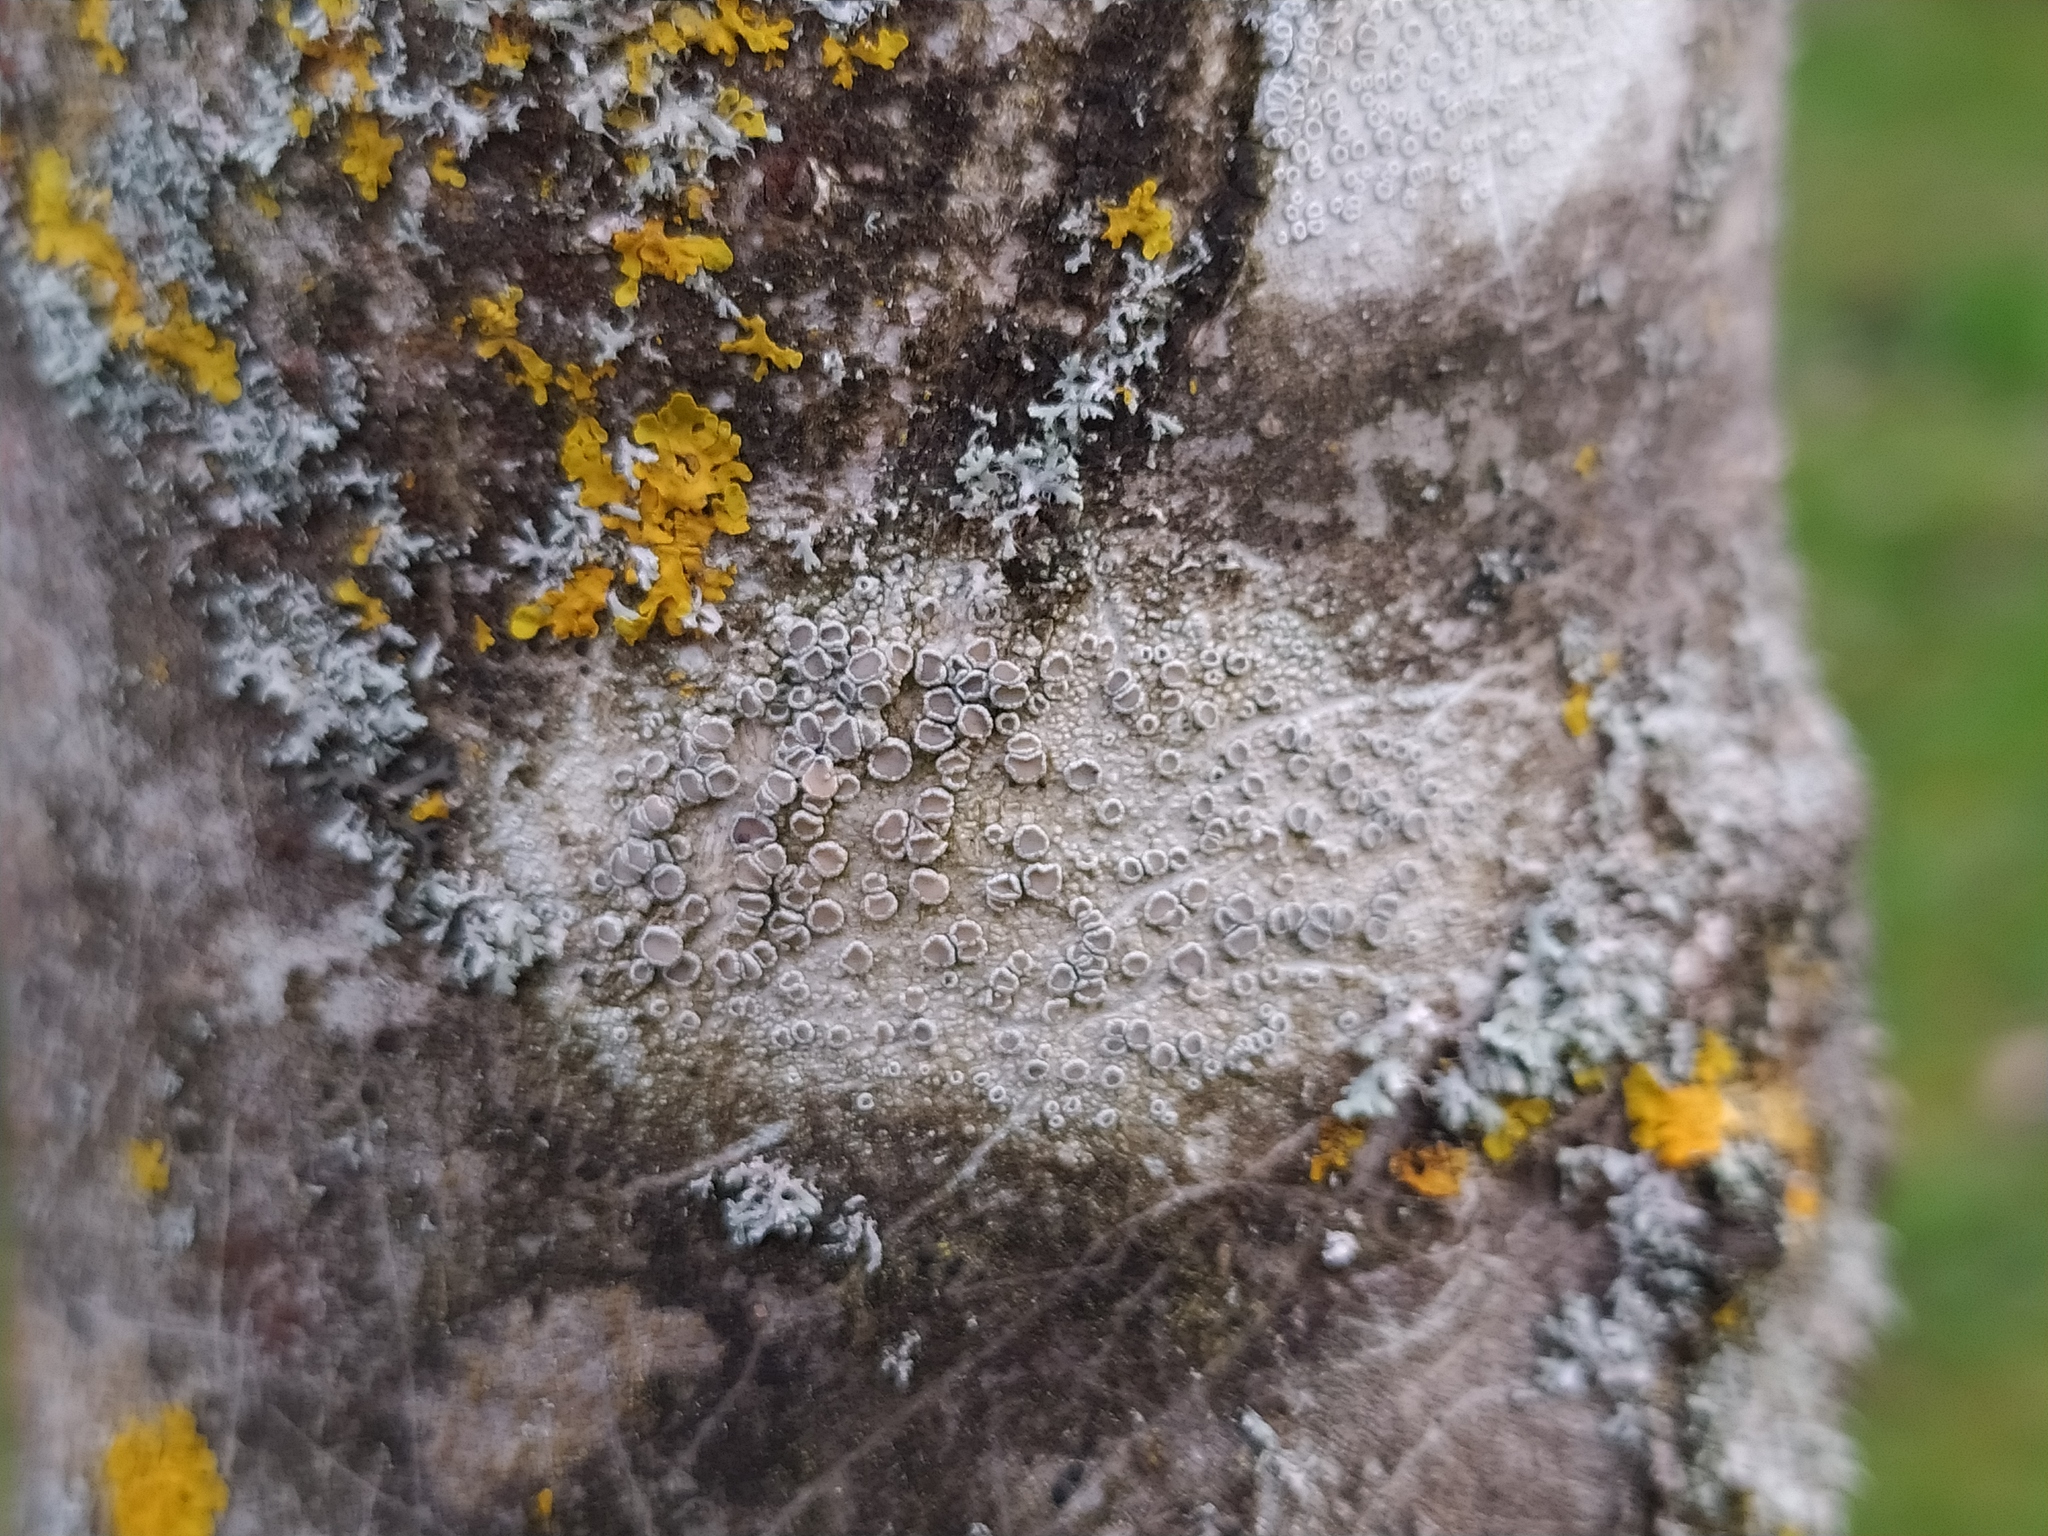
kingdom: Fungi
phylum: Ascomycota
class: Lecanoromycetes
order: Lecanorales
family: Lecanoraceae
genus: Lecanora
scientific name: Lecanora chlarotera
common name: Brown rim-lichen
